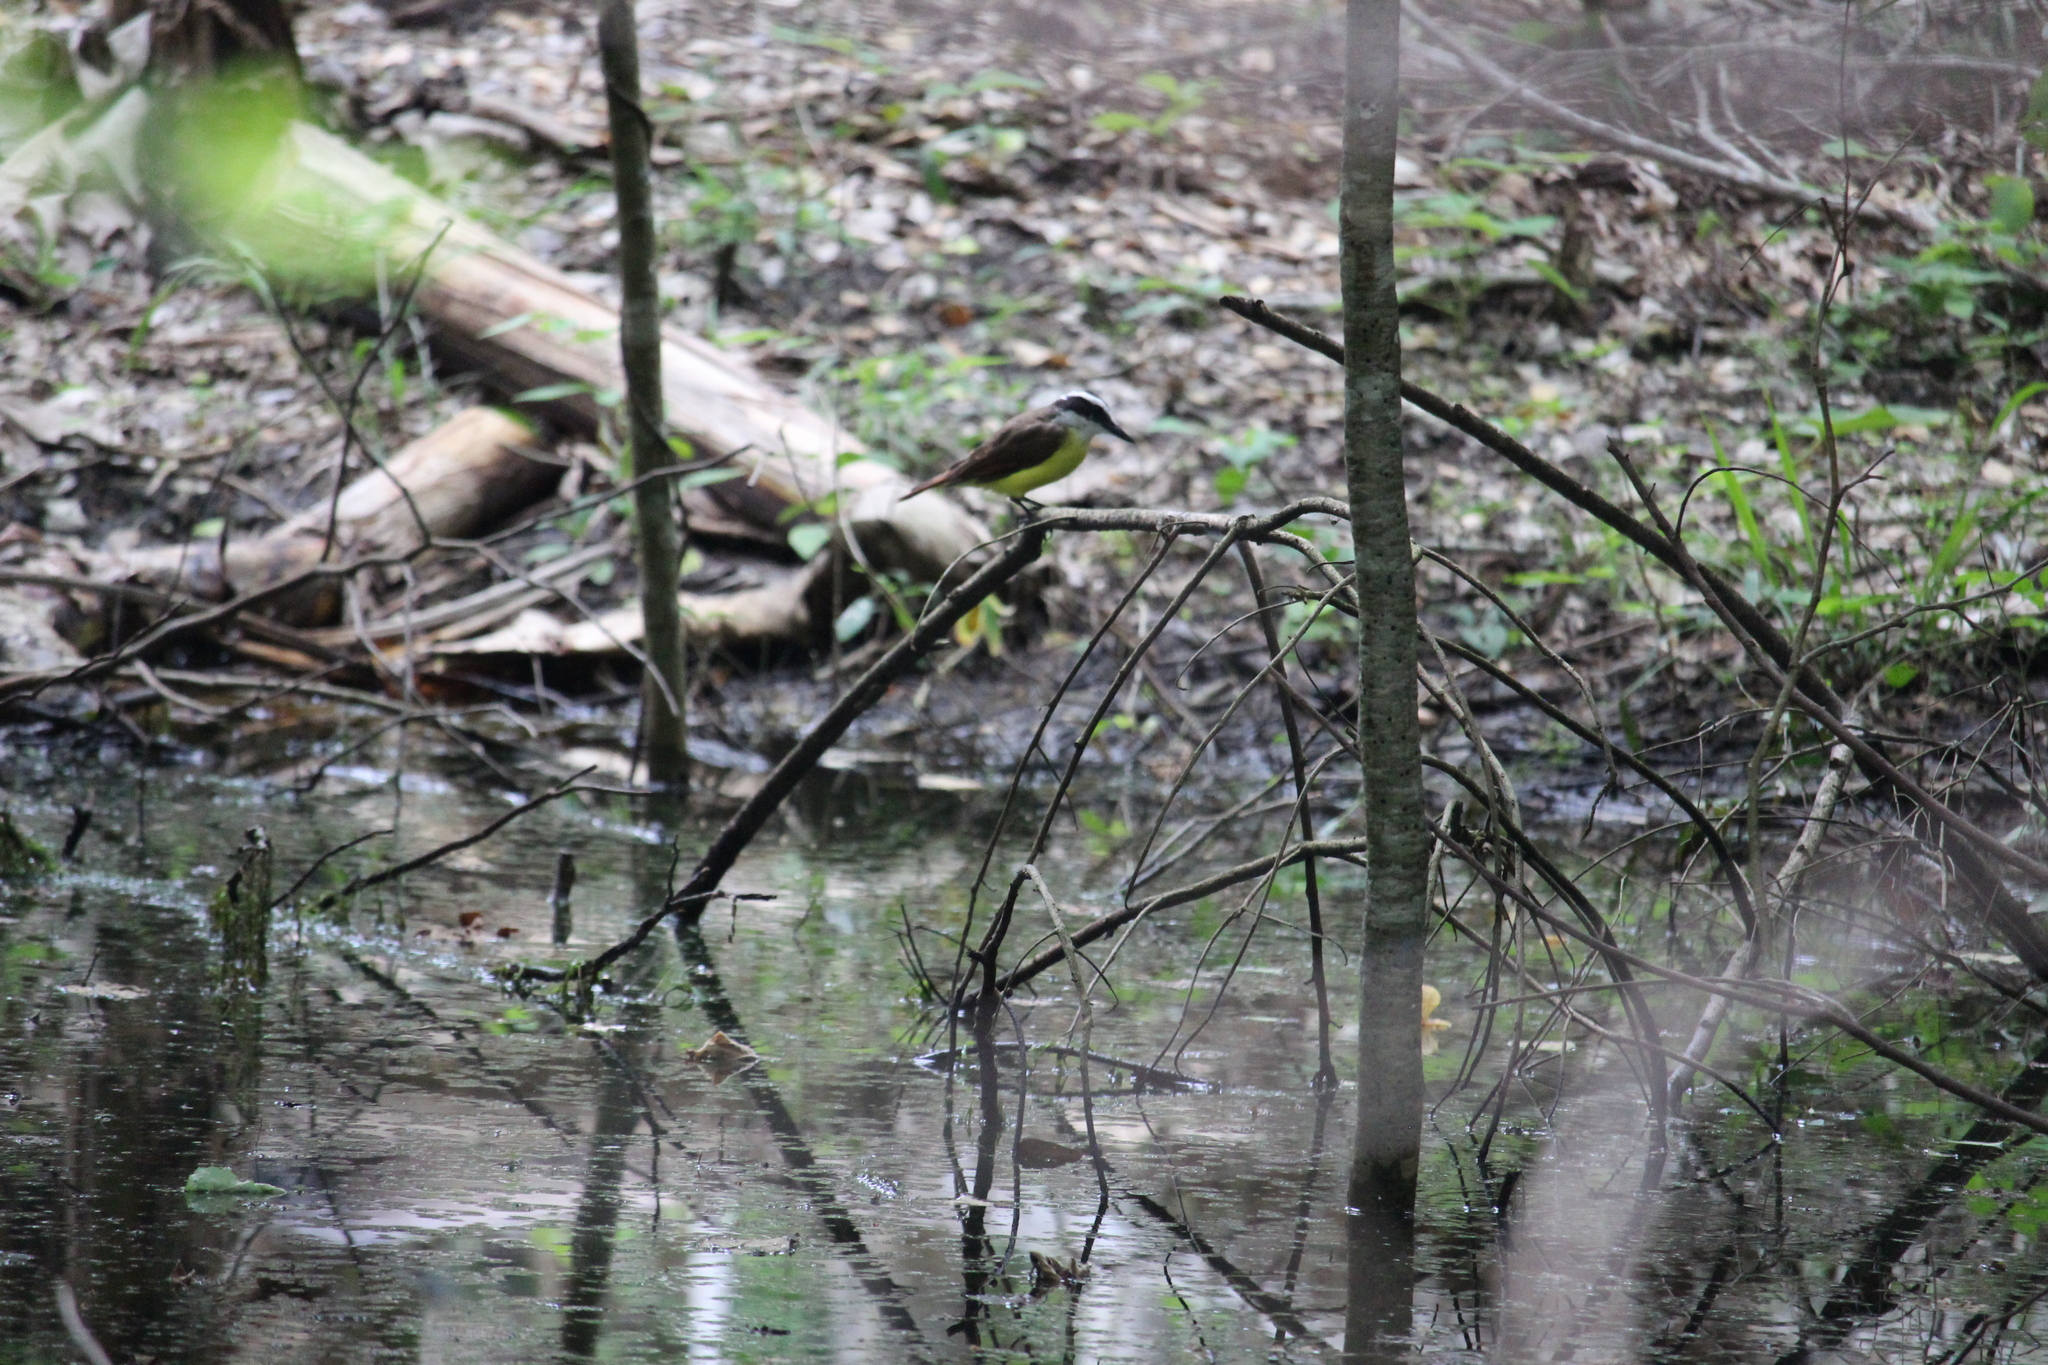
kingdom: Animalia
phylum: Chordata
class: Aves
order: Passeriformes
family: Tyrannidae
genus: Pitangus
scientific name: Pitangus sulphuratus
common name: Great kiskadee
